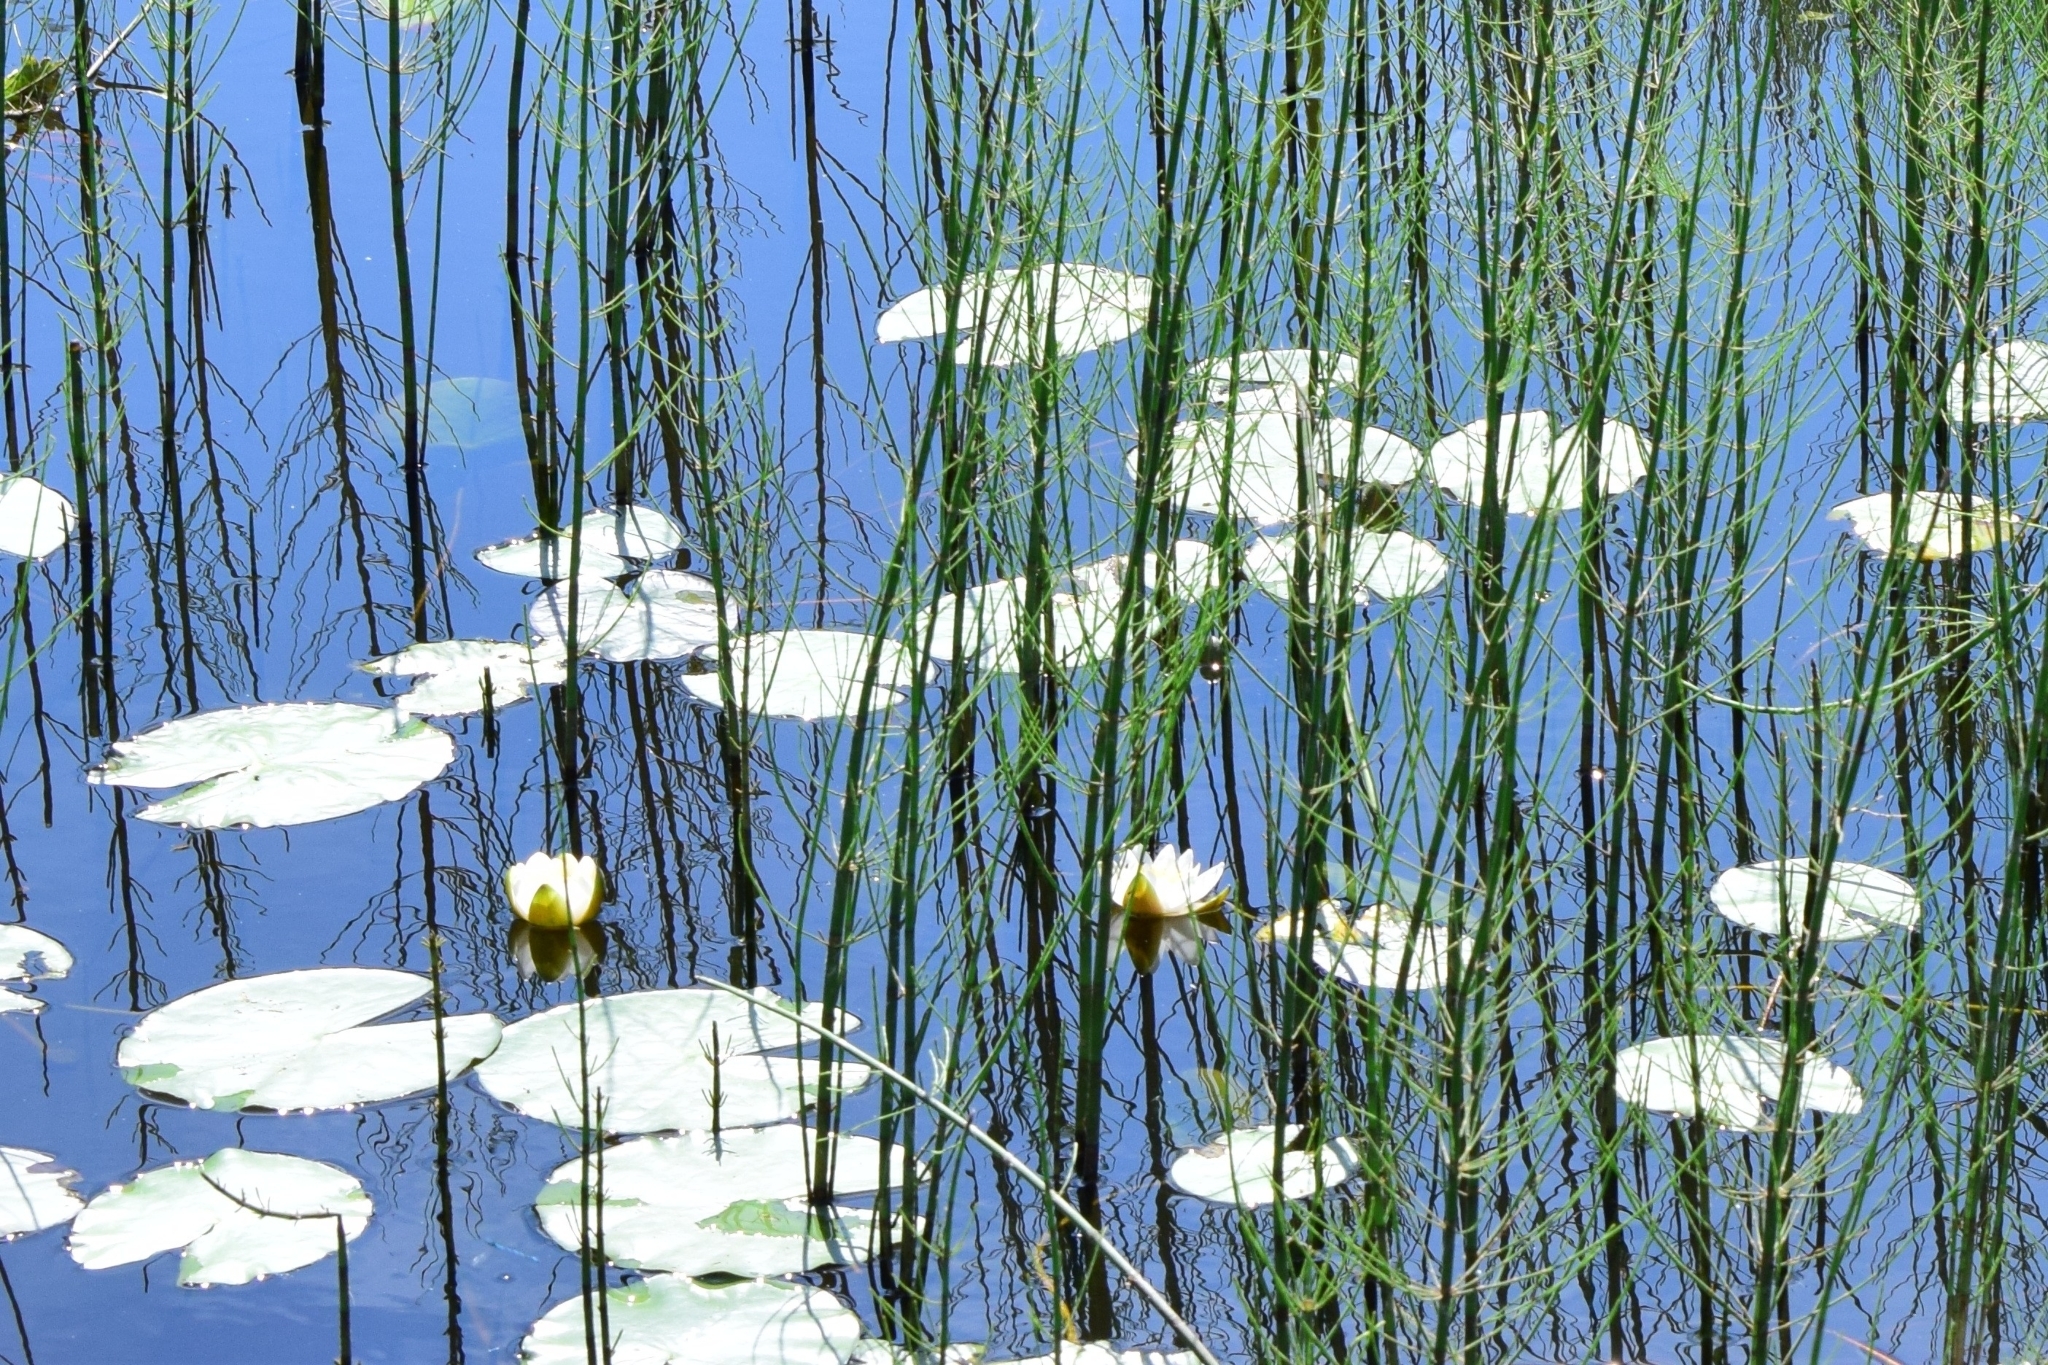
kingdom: Plantae
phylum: Tracheophyta
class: Magnoliopsida
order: Nymphaeales
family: Nymphaeaceae
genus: Nymphaea
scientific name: Nymphaea candida
